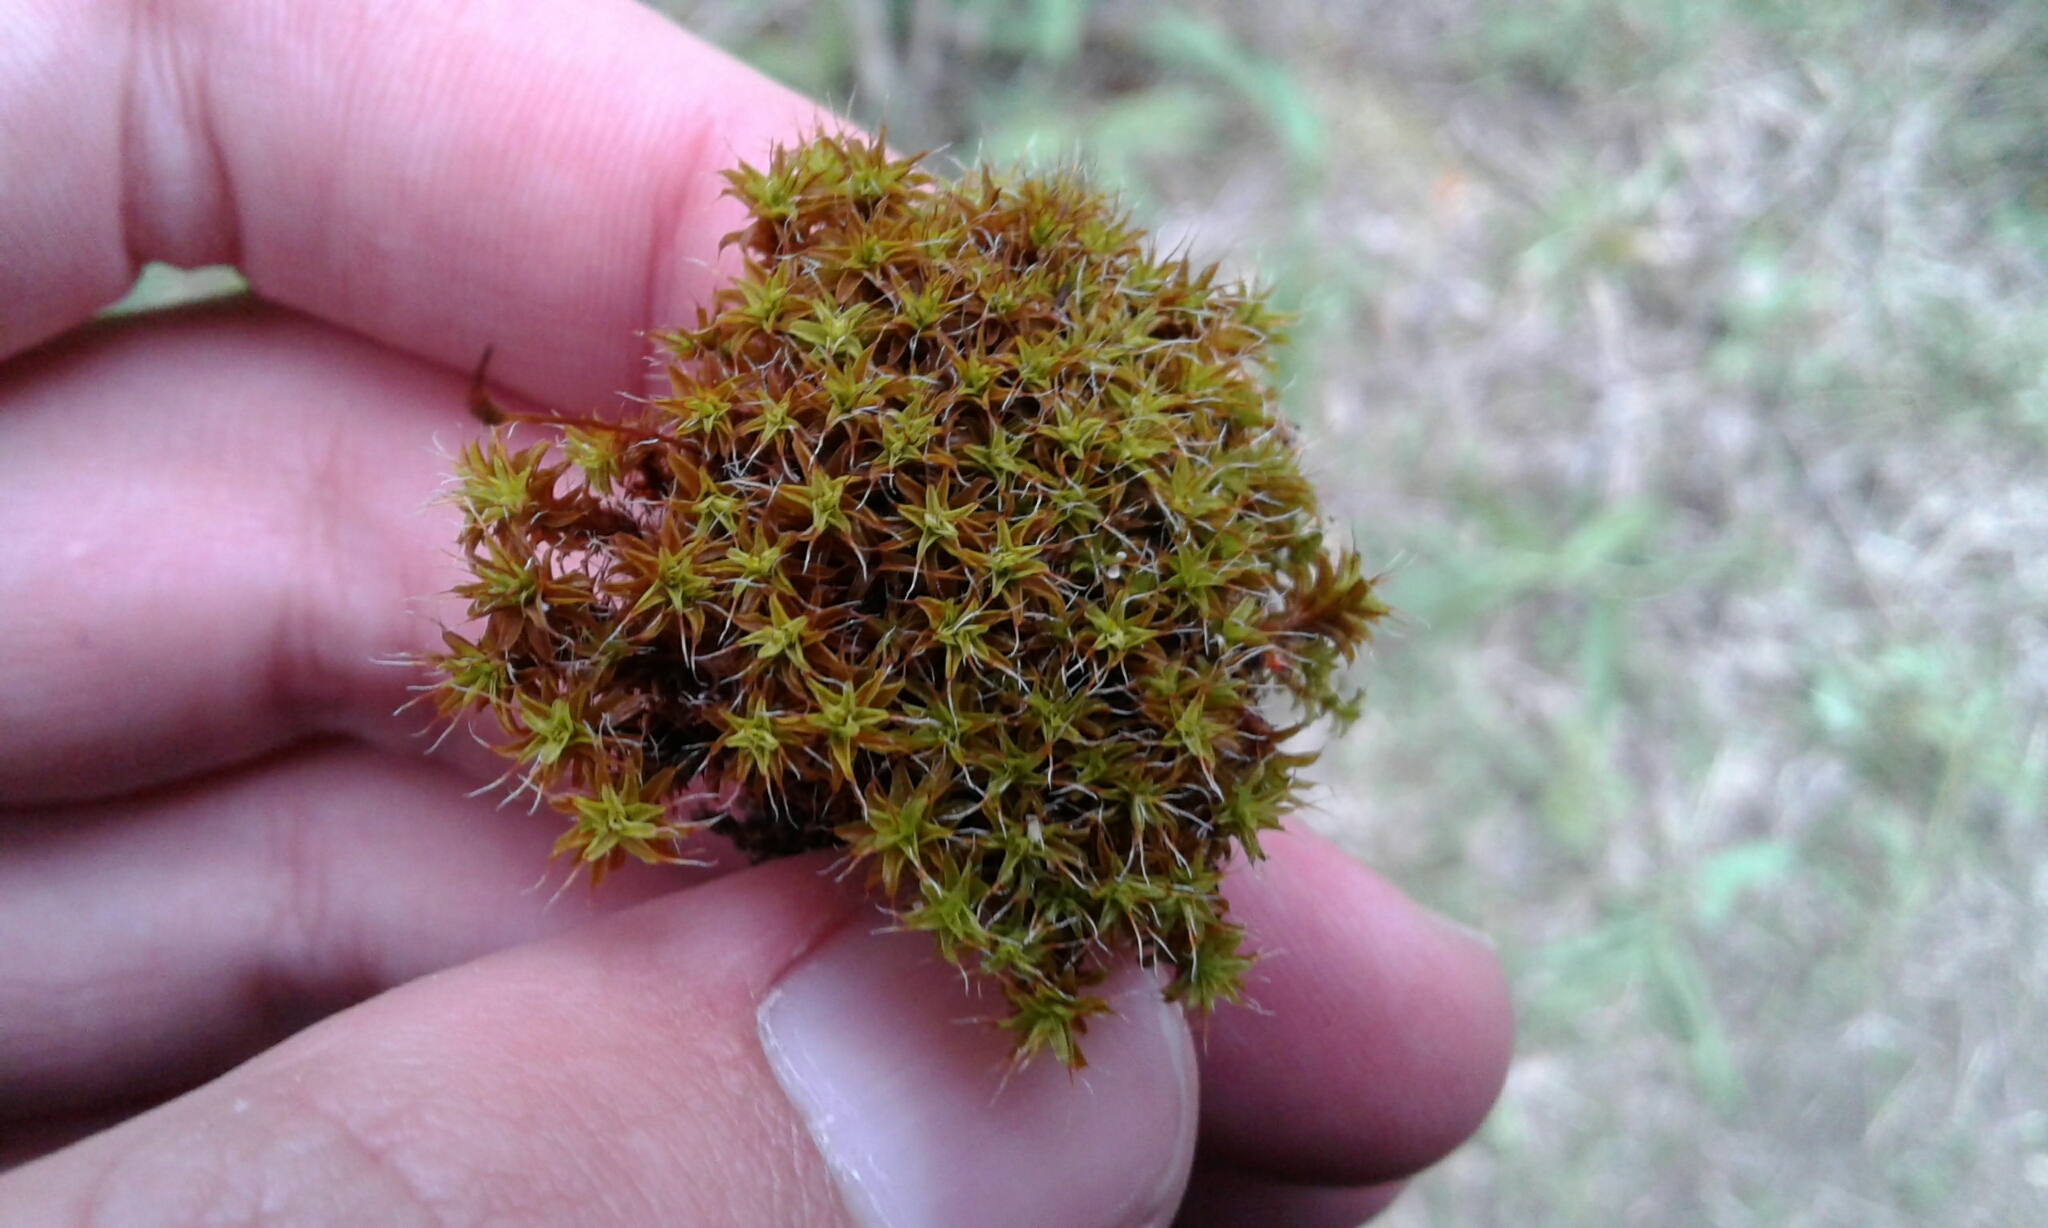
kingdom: Plantae
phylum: Bryophyta
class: Bryopsida
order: Pottiales
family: Pottiaceae
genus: Syntrichia
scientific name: Syntrichia ruralis
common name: Sidewalk screw moss
